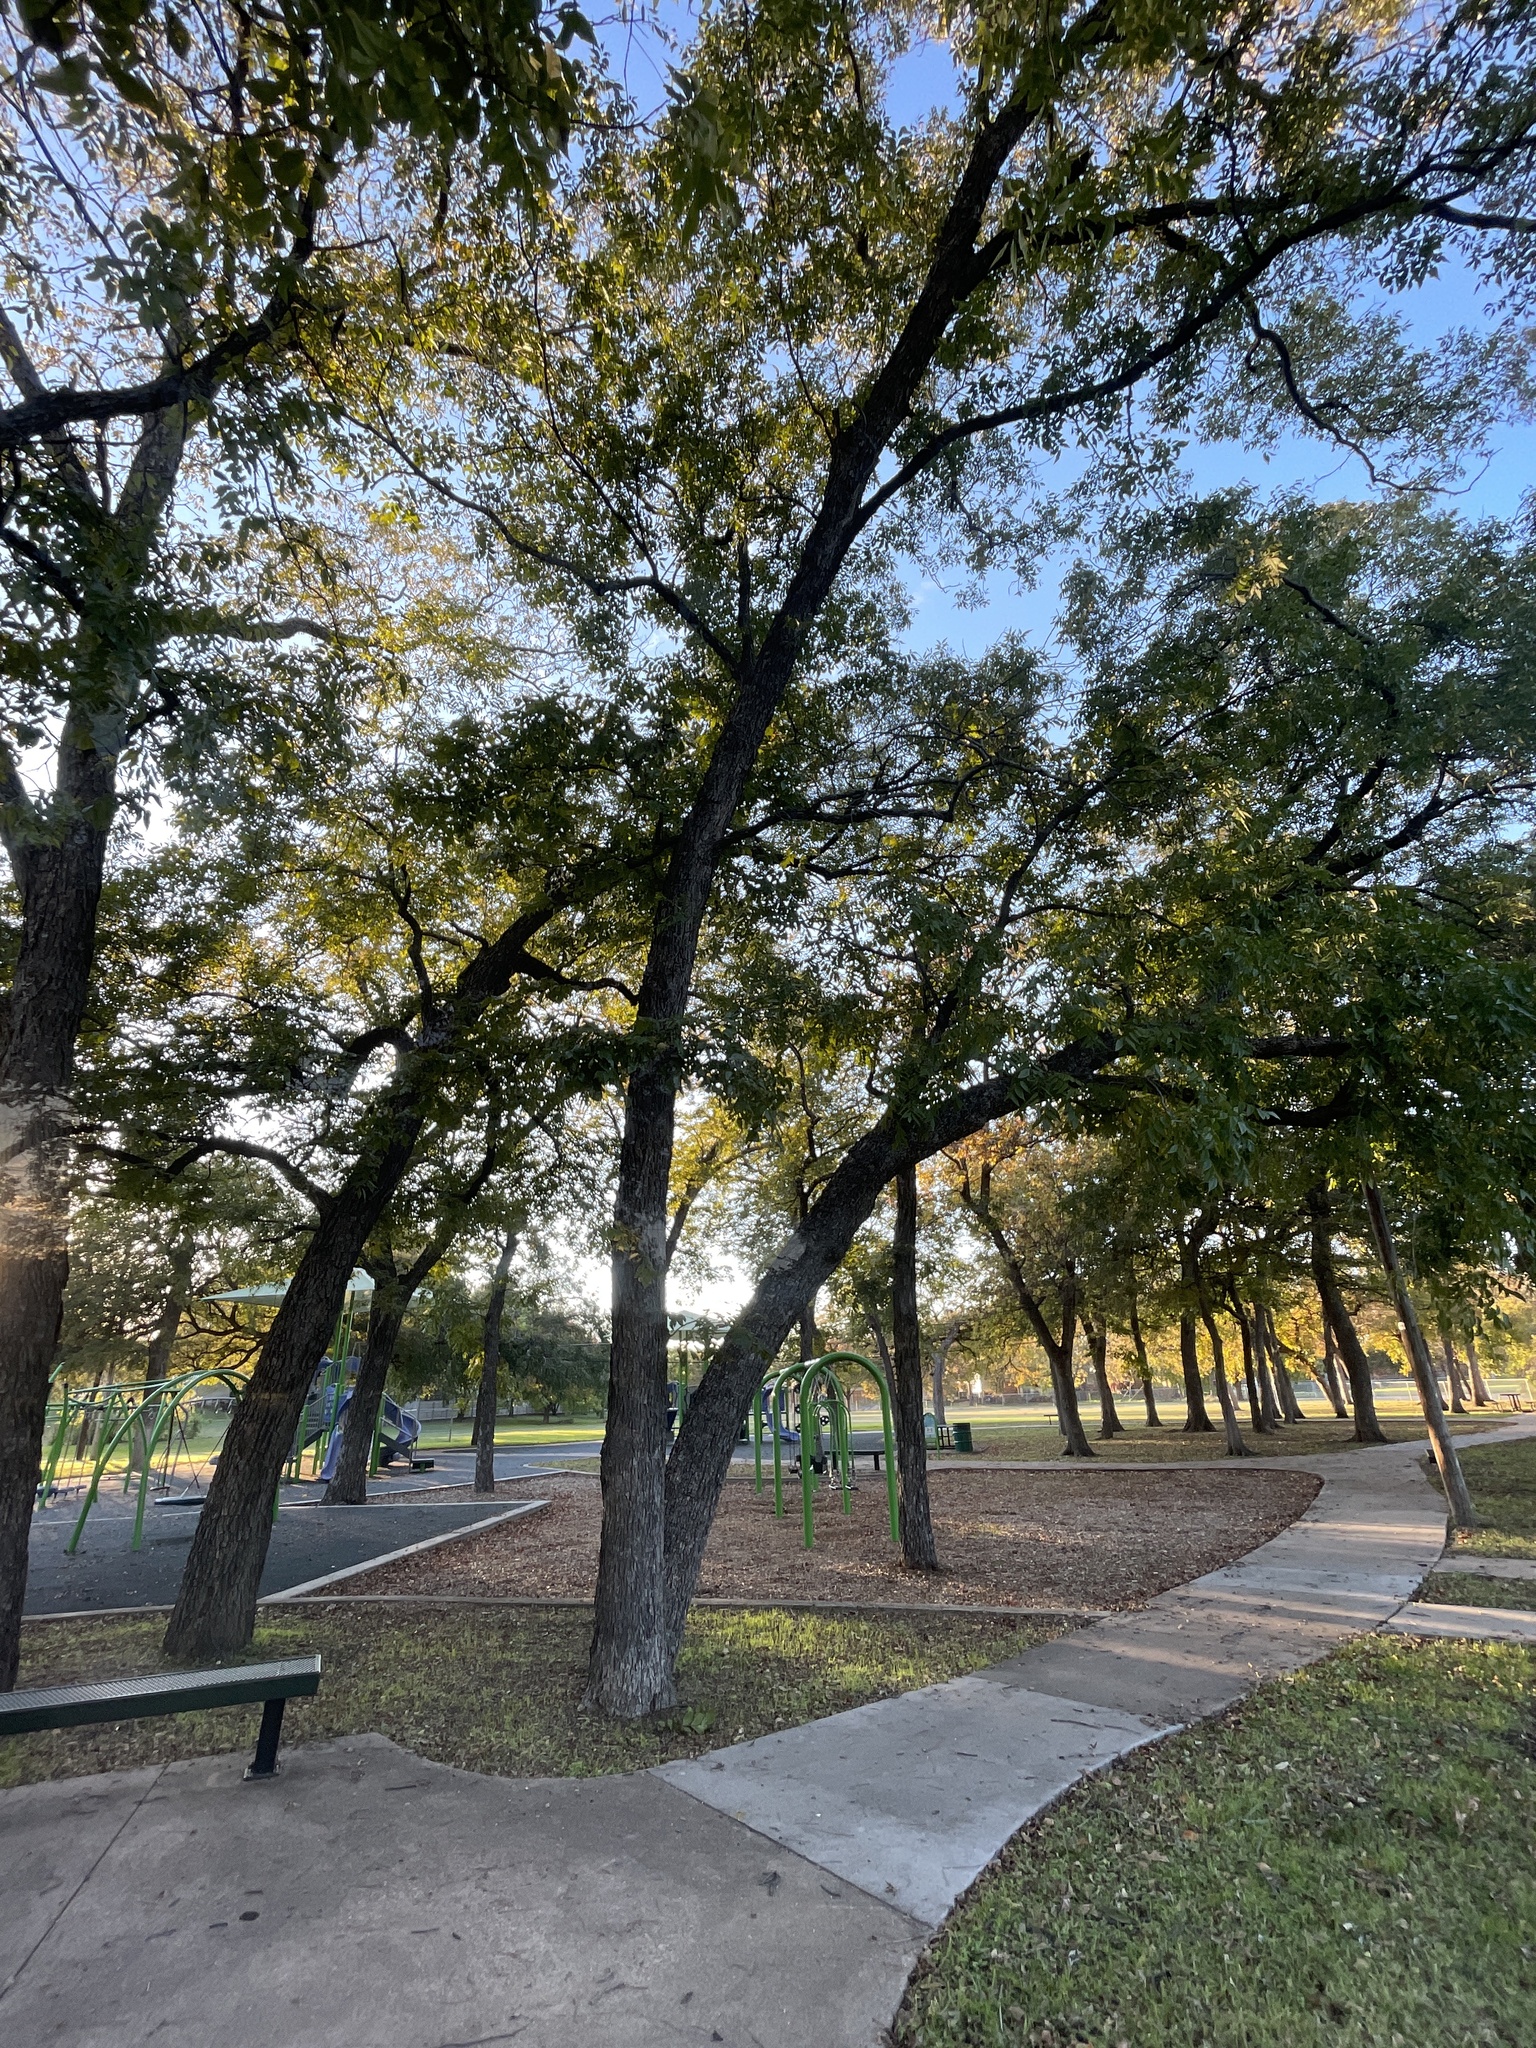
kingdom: Plantae
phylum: Tracheophyta
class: Magnoliopsida
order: Fagales
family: Juglandaceae
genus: Carya
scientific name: Carya illinoinensis
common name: Pecan
